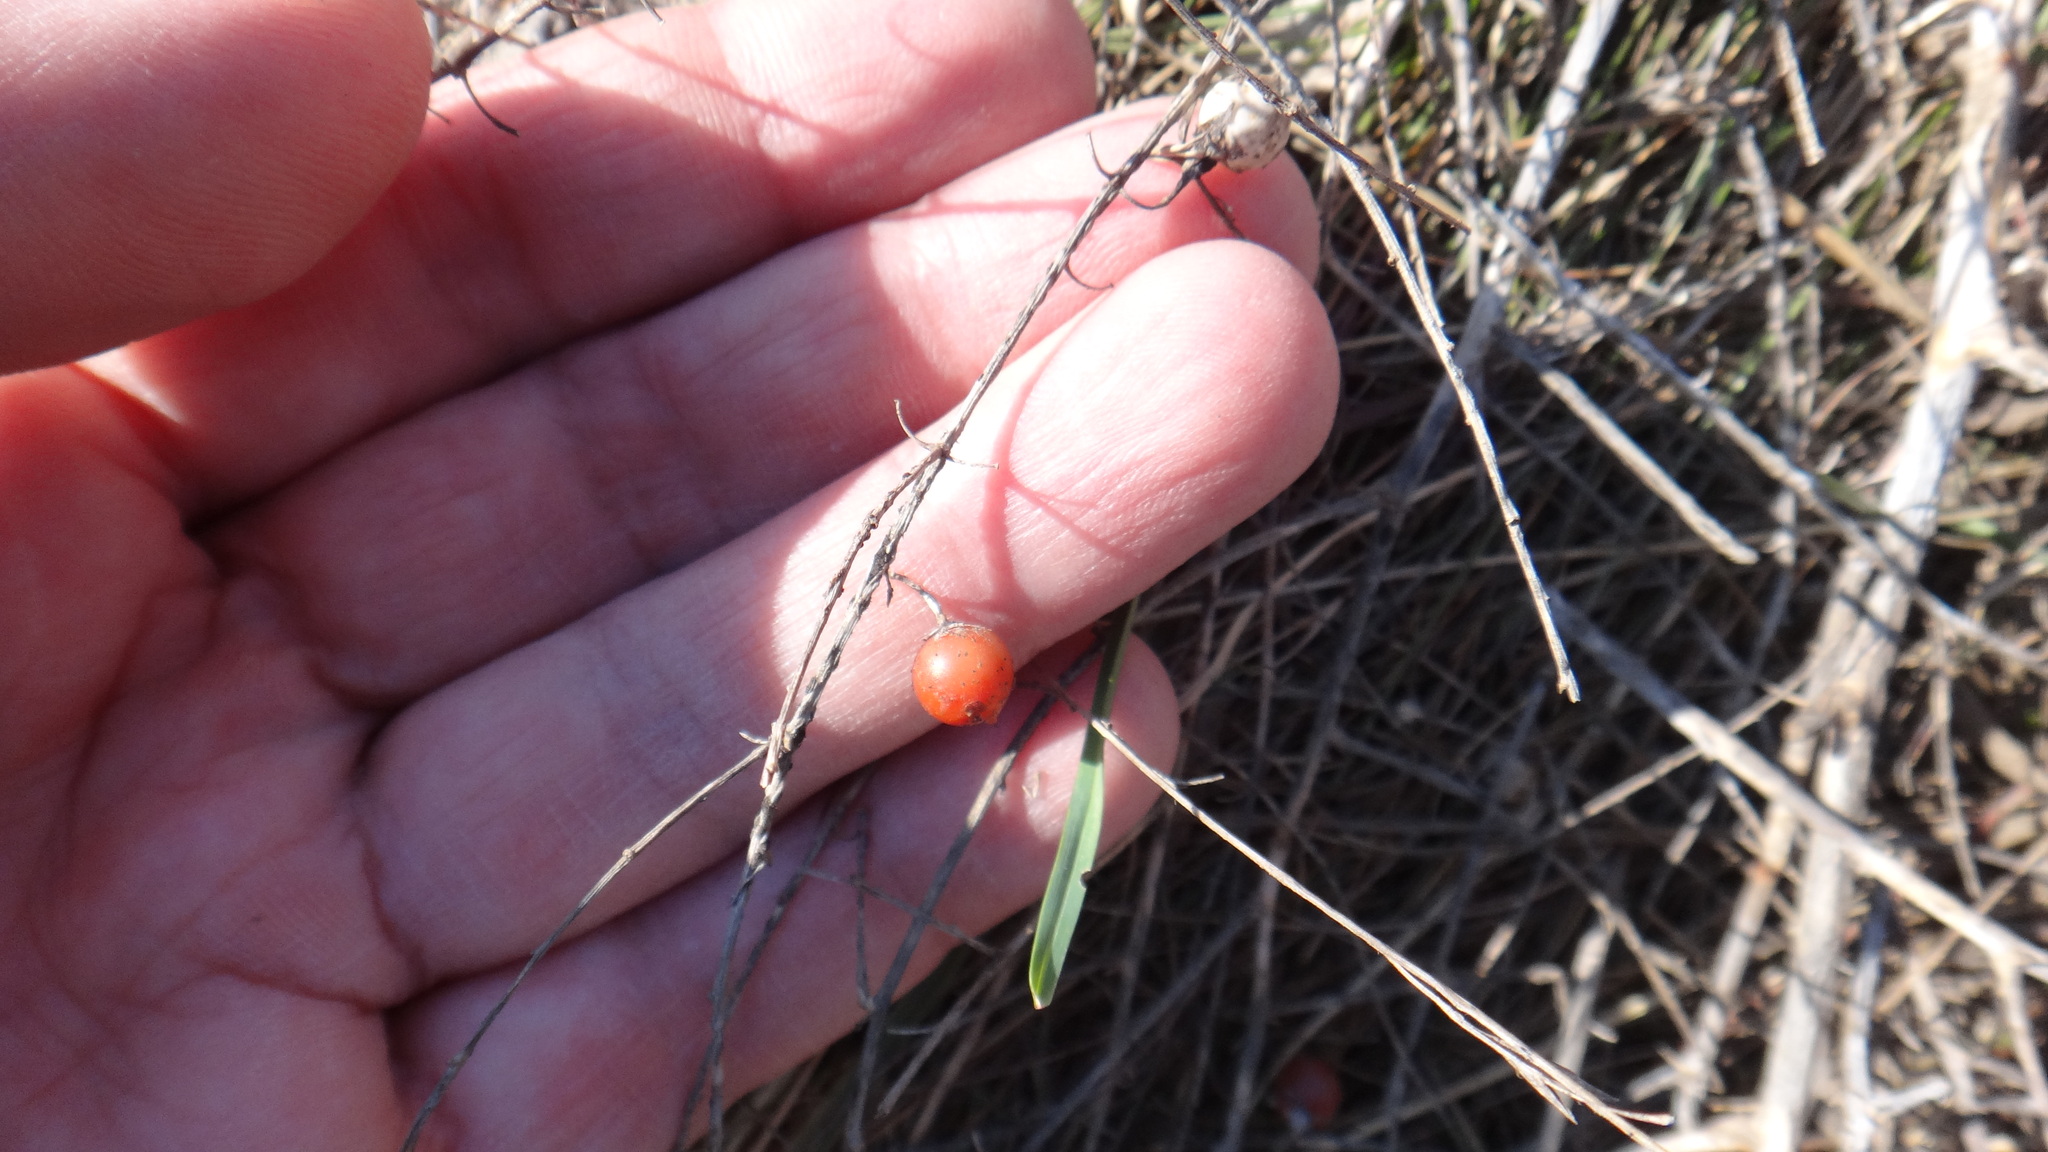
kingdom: Plantae
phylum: Tracheophyta
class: Liliopsida
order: Asparagales
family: Asparagaceae
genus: Asparagus
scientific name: Asparagus officinalis
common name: Garden asparagus
